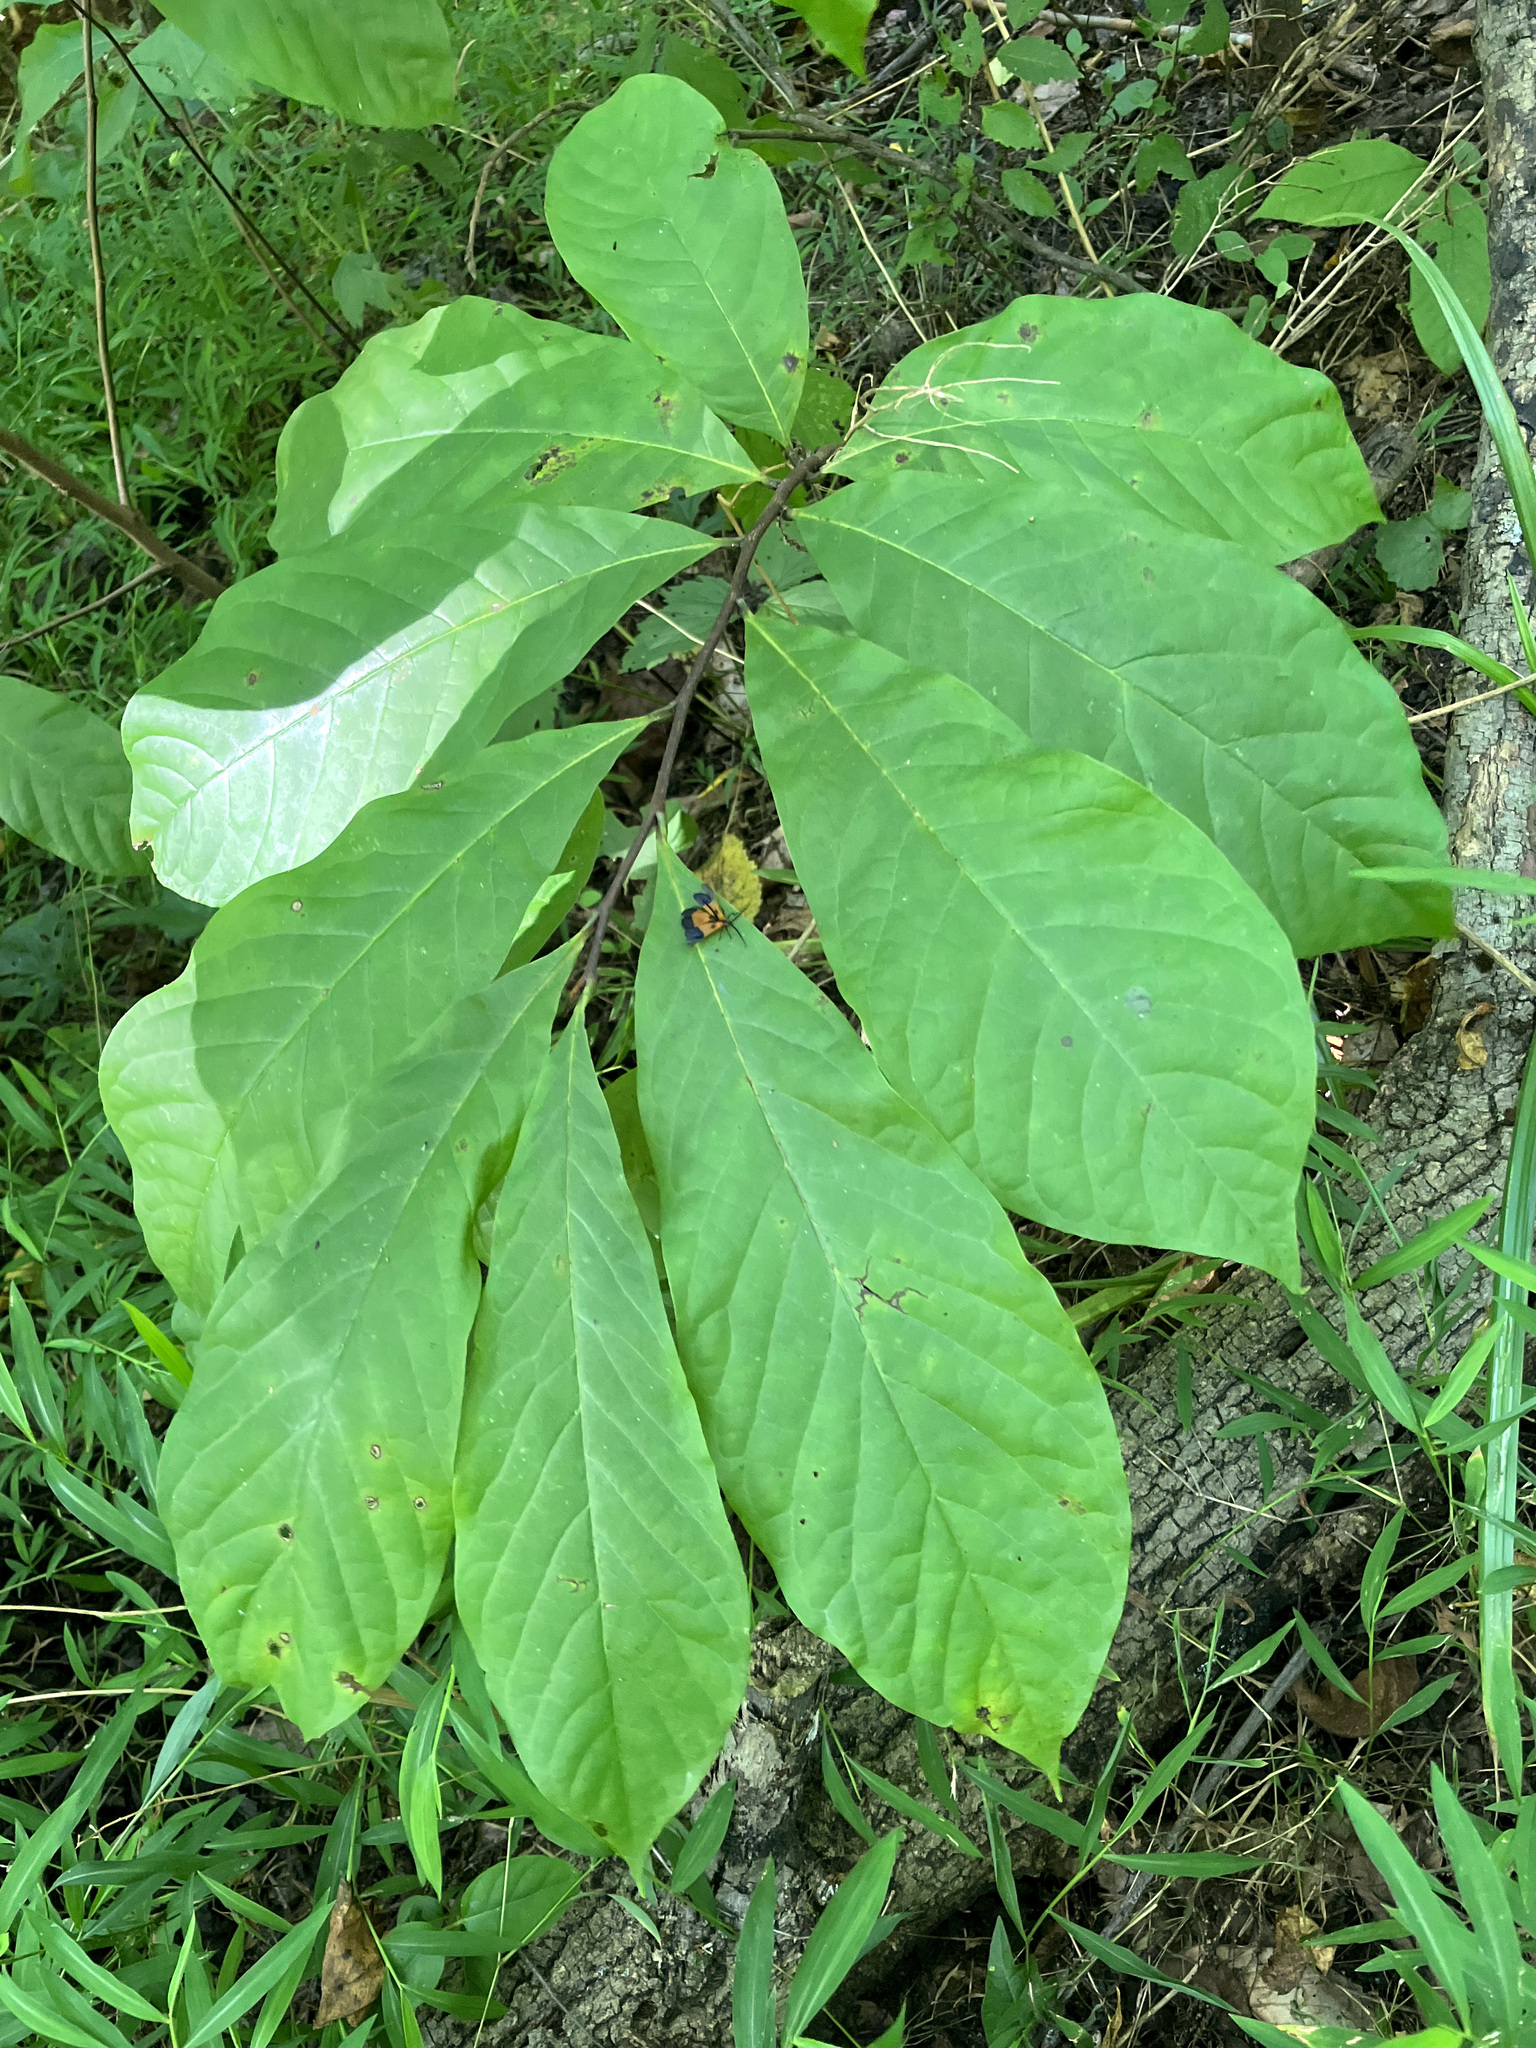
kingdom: Animalia
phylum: Arthropoda
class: Insecta
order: Coleoptera
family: Lycidae
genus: Calopteron
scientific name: Calopteron terminale
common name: End band net-winged beetle
